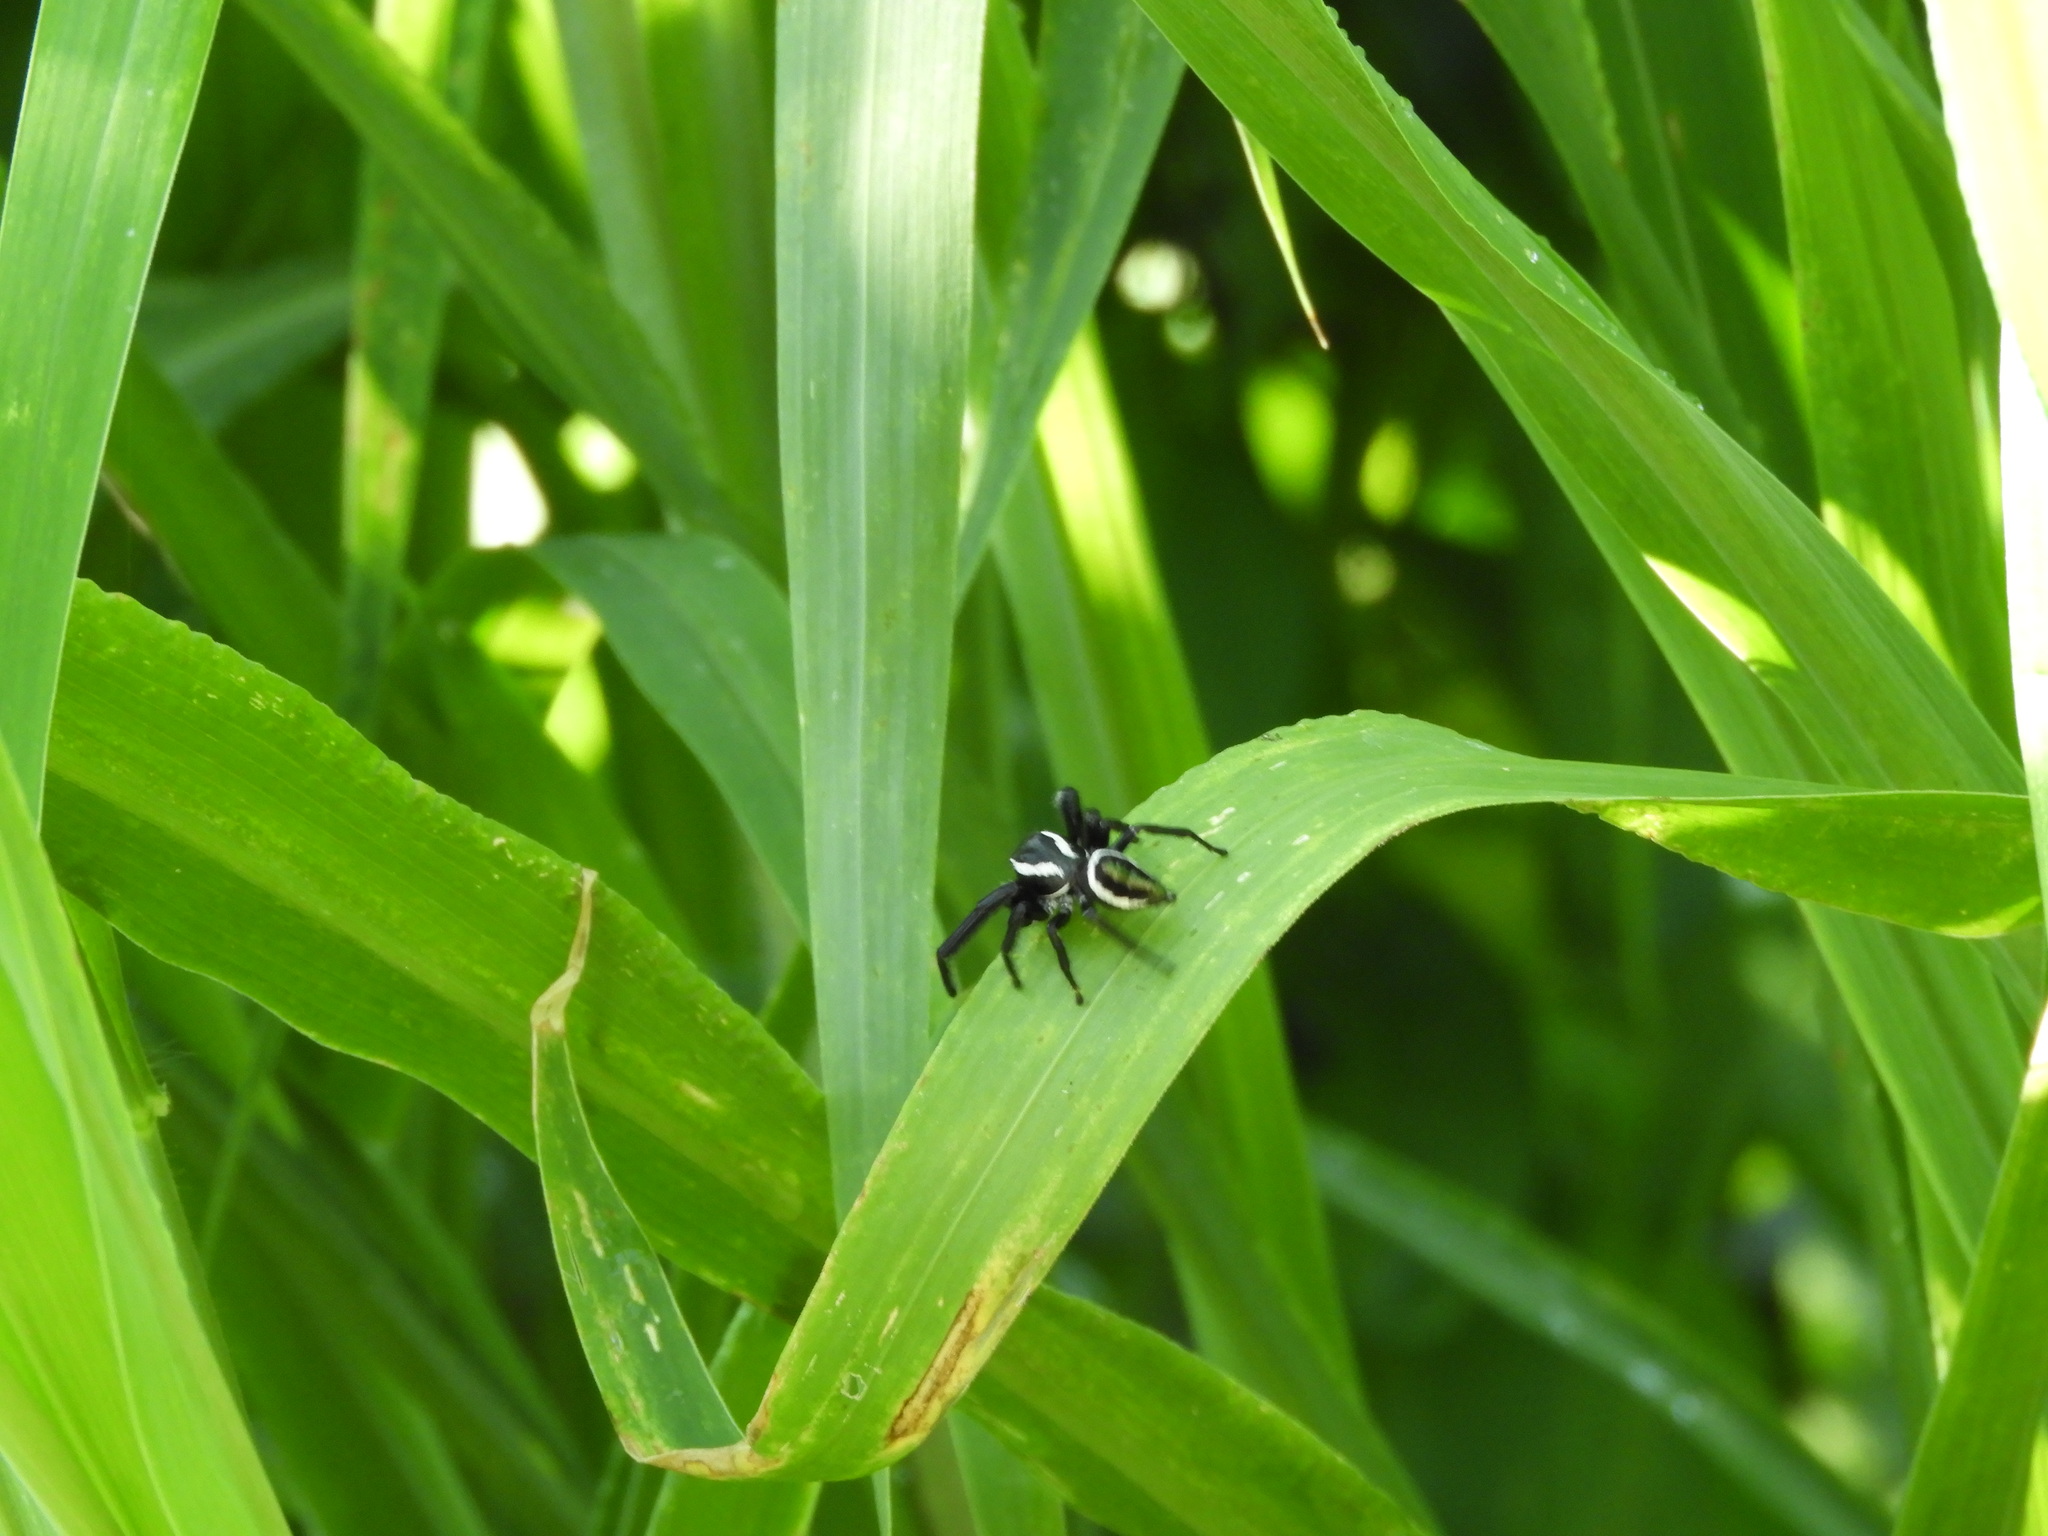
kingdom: Animalia
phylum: Arthropoda
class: Arachnida
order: Araneae
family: Salticidae
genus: Paraphidippus
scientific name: Paraphidippus
